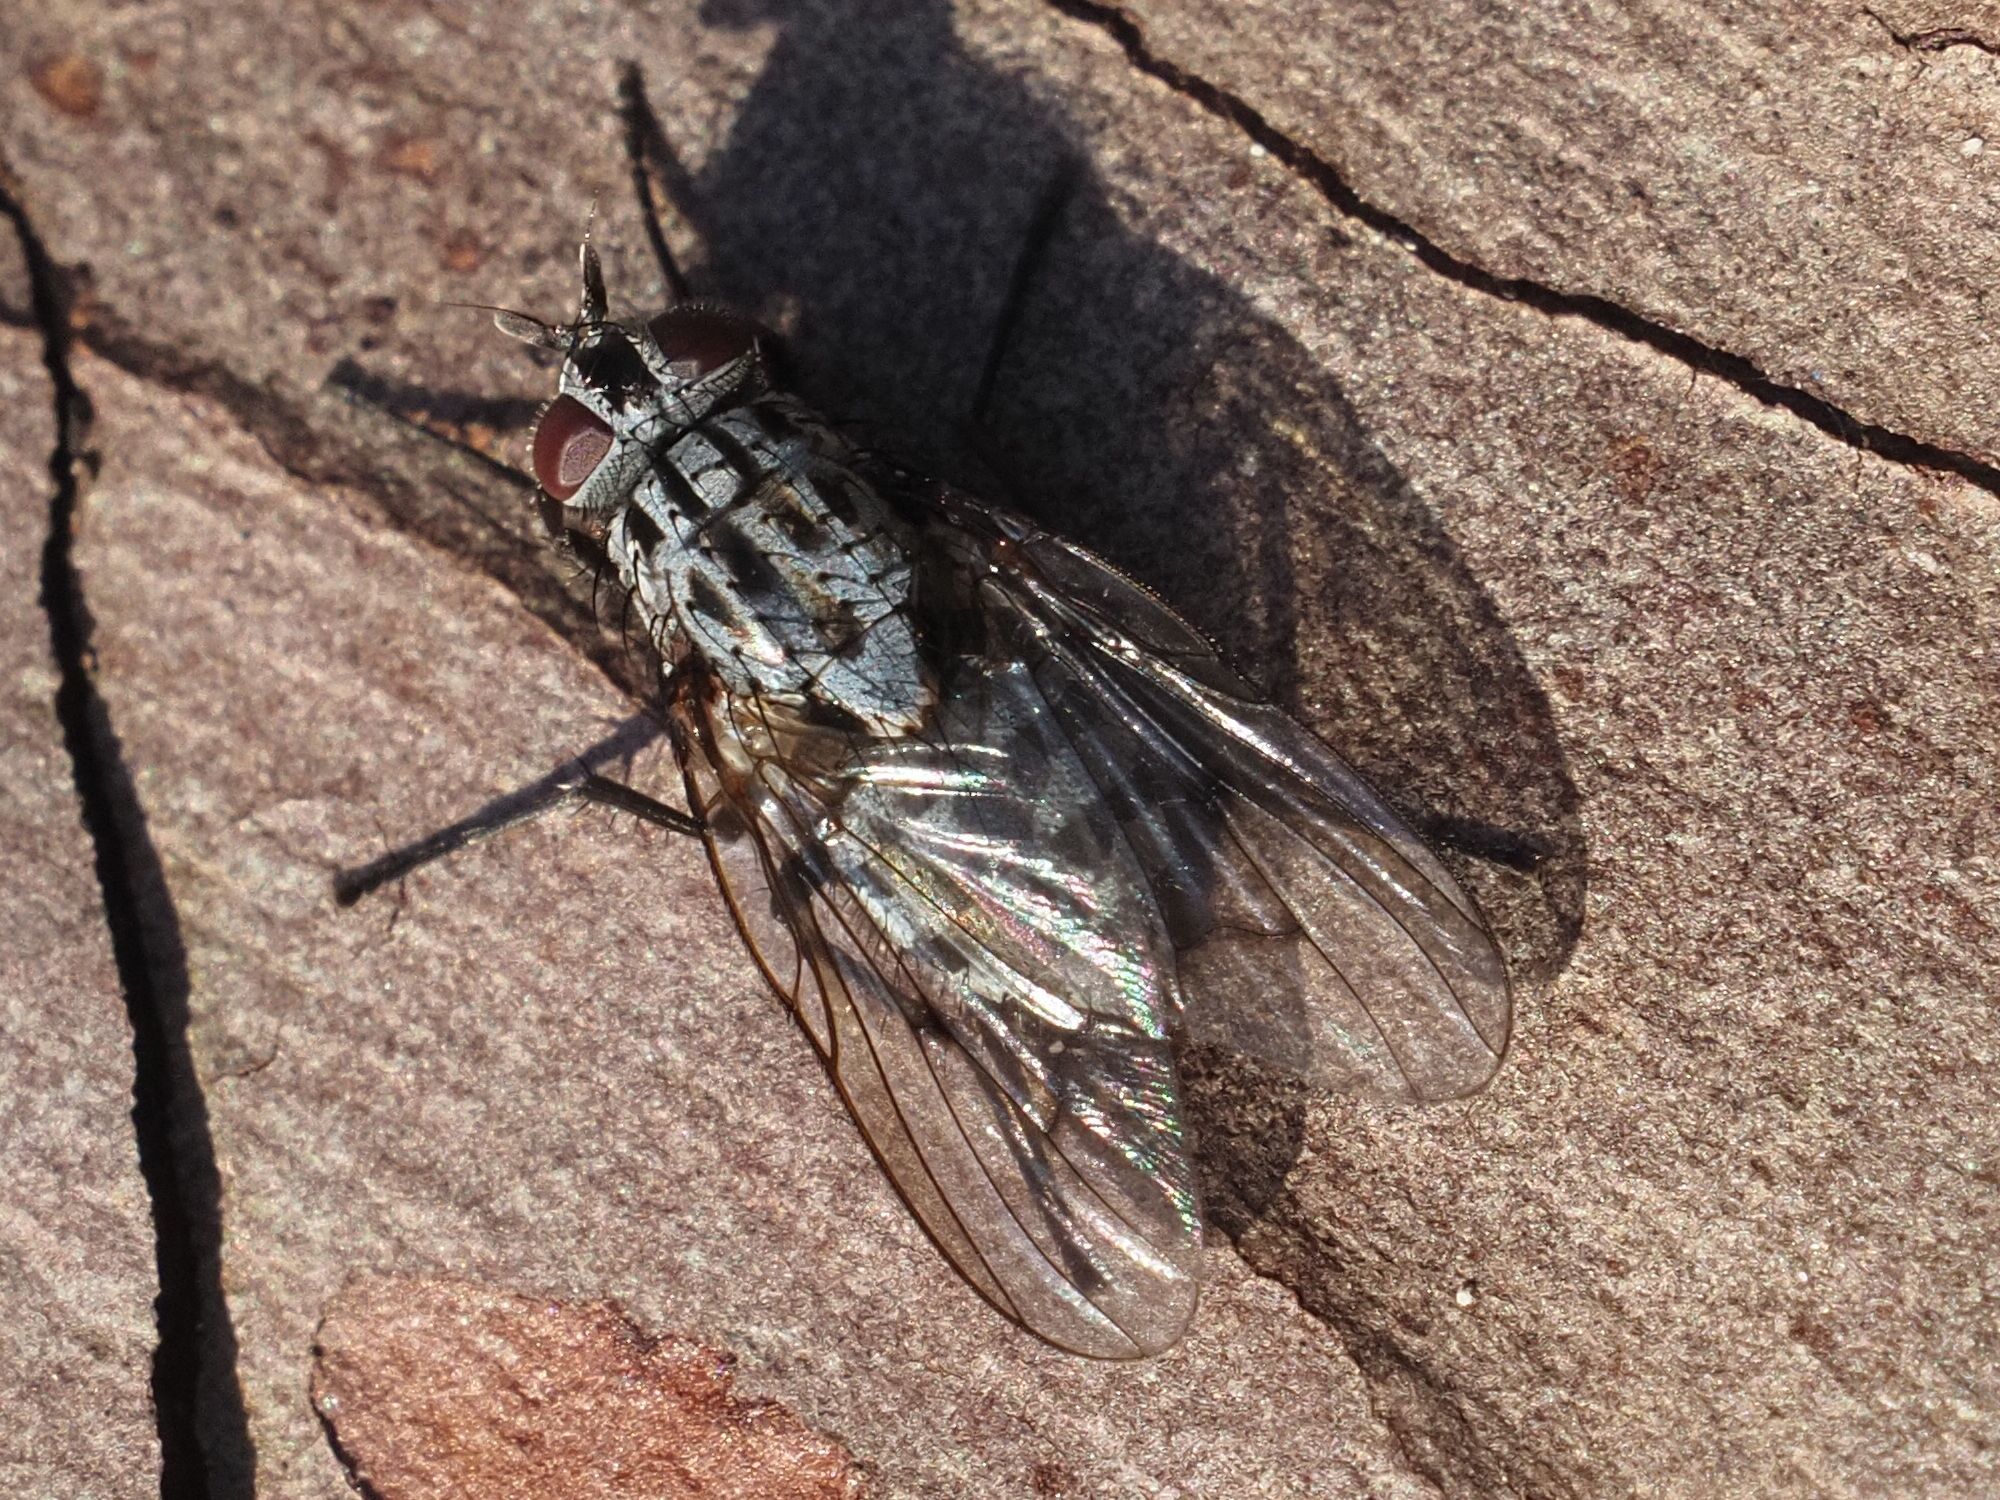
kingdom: Animalia
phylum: Arthropoda
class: Insecta
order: Diptera
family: Muscidae
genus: Phaonia
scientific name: Phaonia trimaculata
